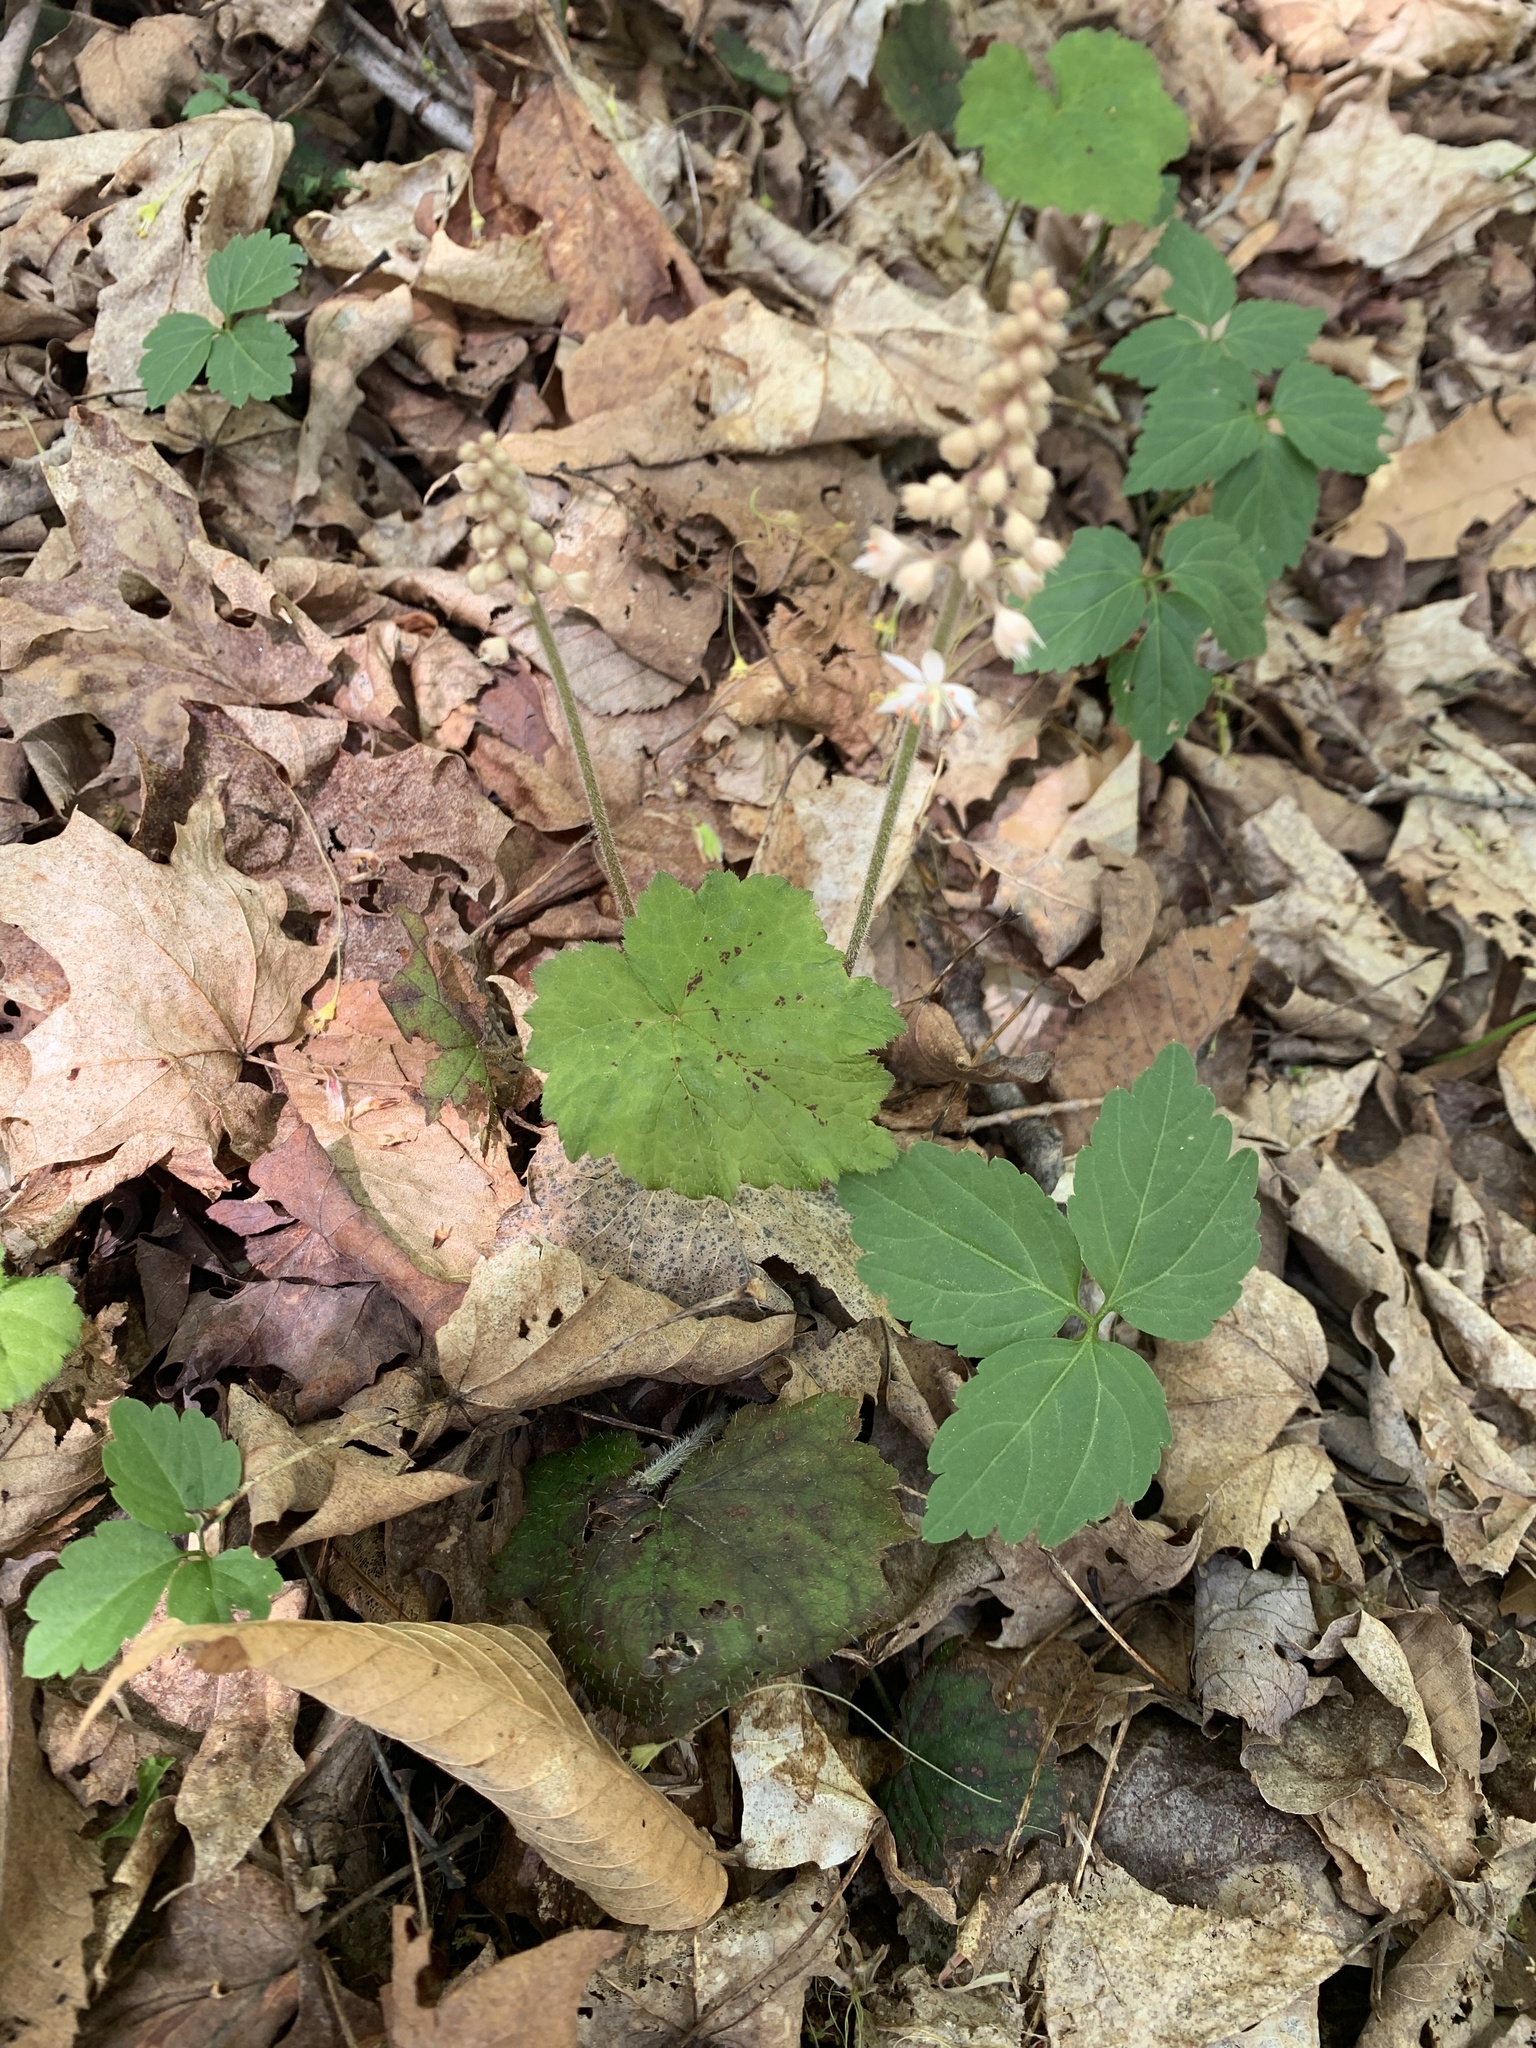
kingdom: Plantae
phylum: Tracheophyta
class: Magnoliopsida
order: Saxifragales
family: Saxifragaceae
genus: Tiarella
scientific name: Tiarella stolonifera
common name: Stoloniferous foamflower
